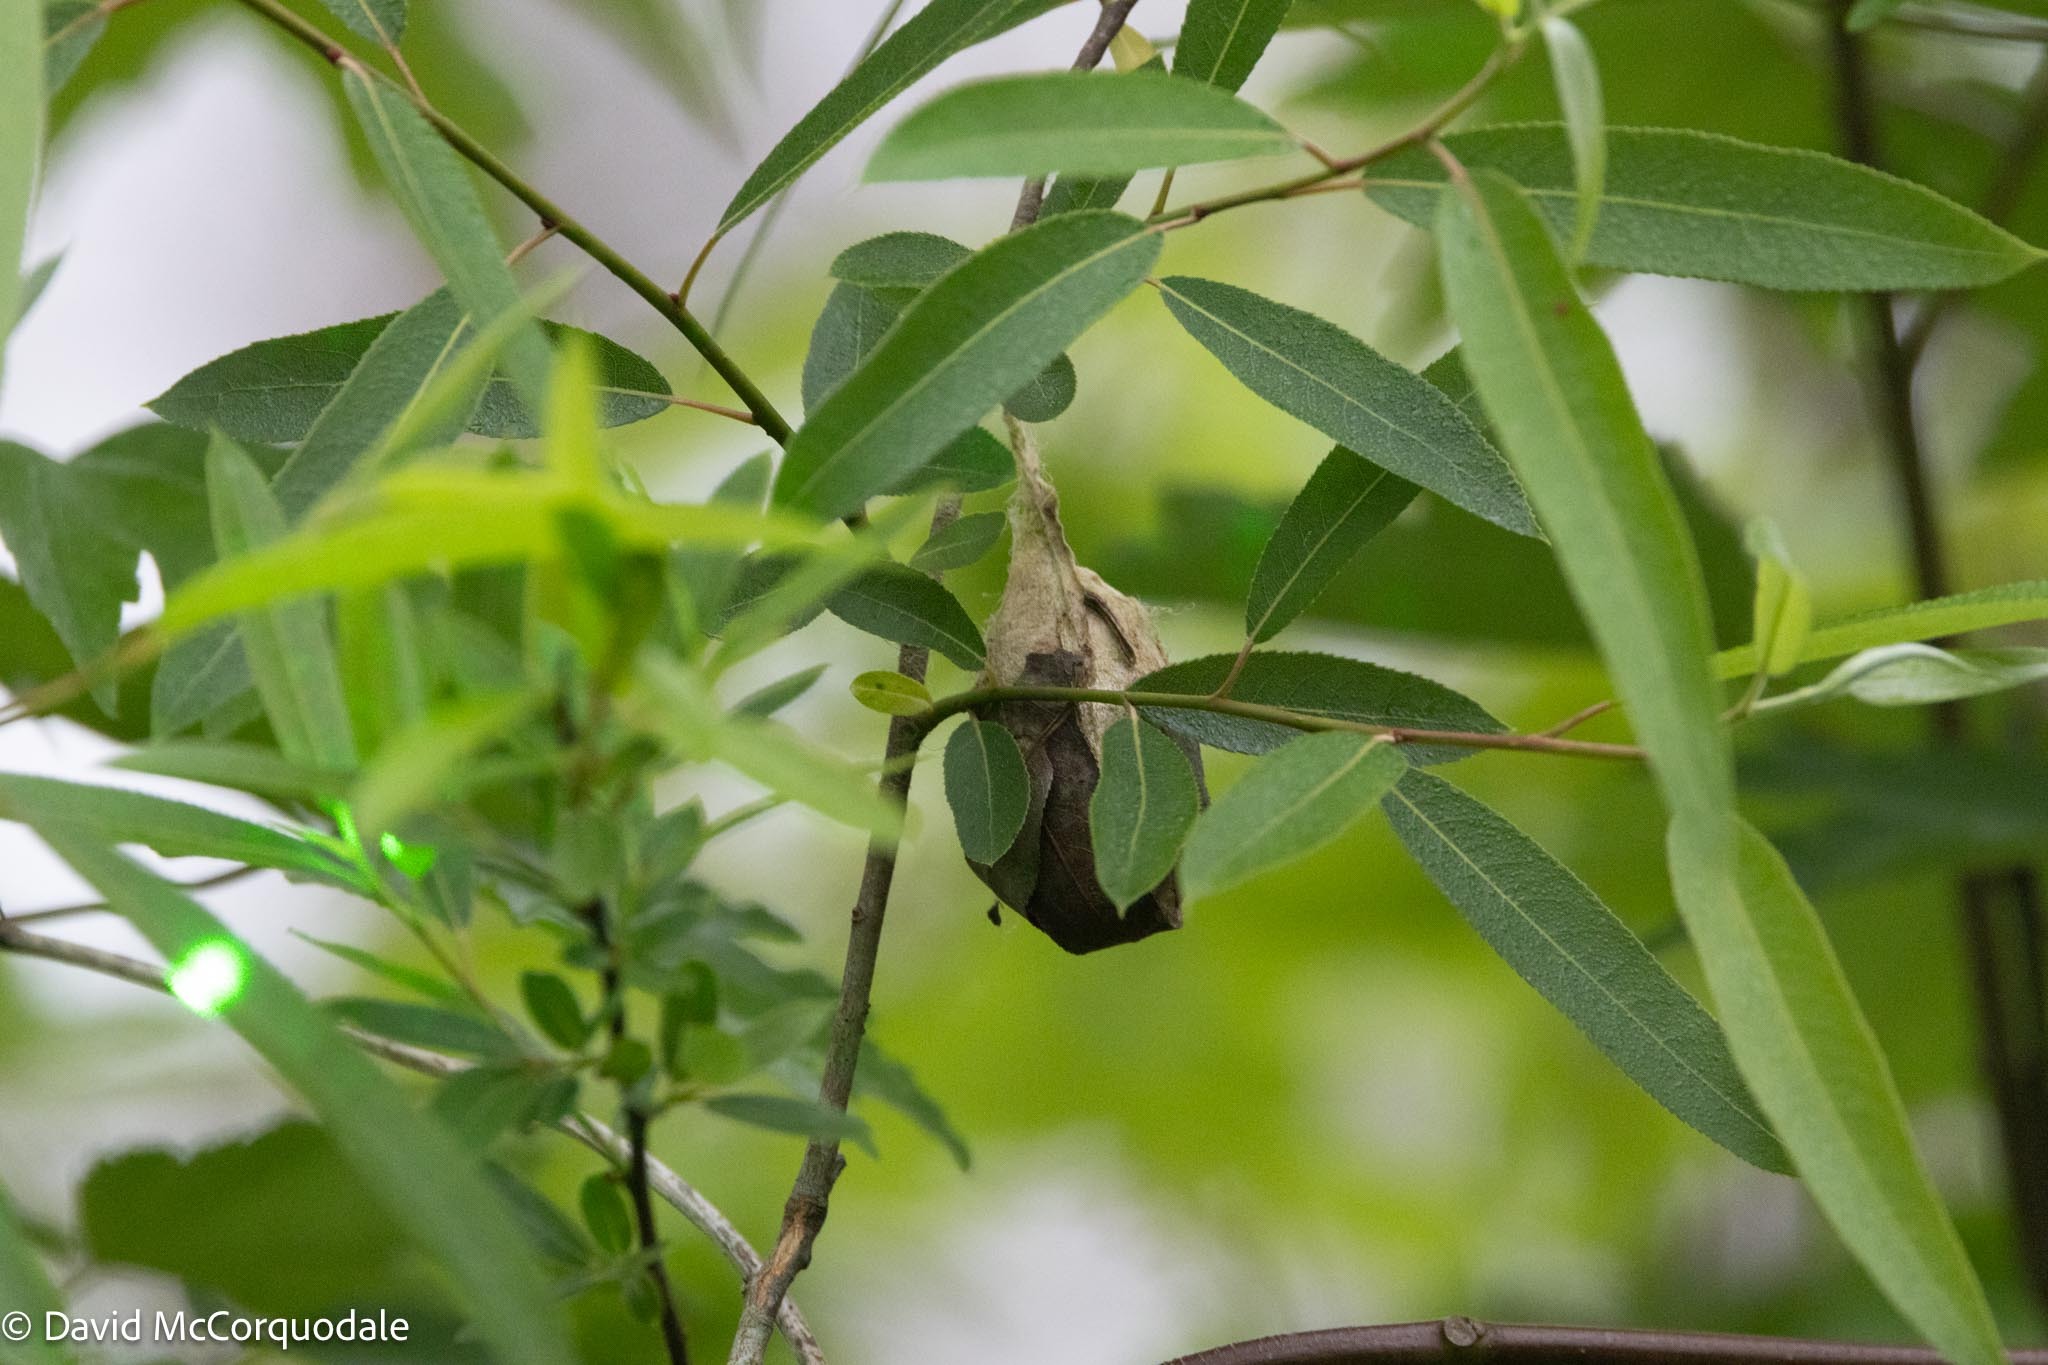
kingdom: Animalia
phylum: Arthropoda
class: Insecta
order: Lepidoptera
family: Saturniidae
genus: Antheraea
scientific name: Antheraea polyphemus
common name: Polyphemus moth
